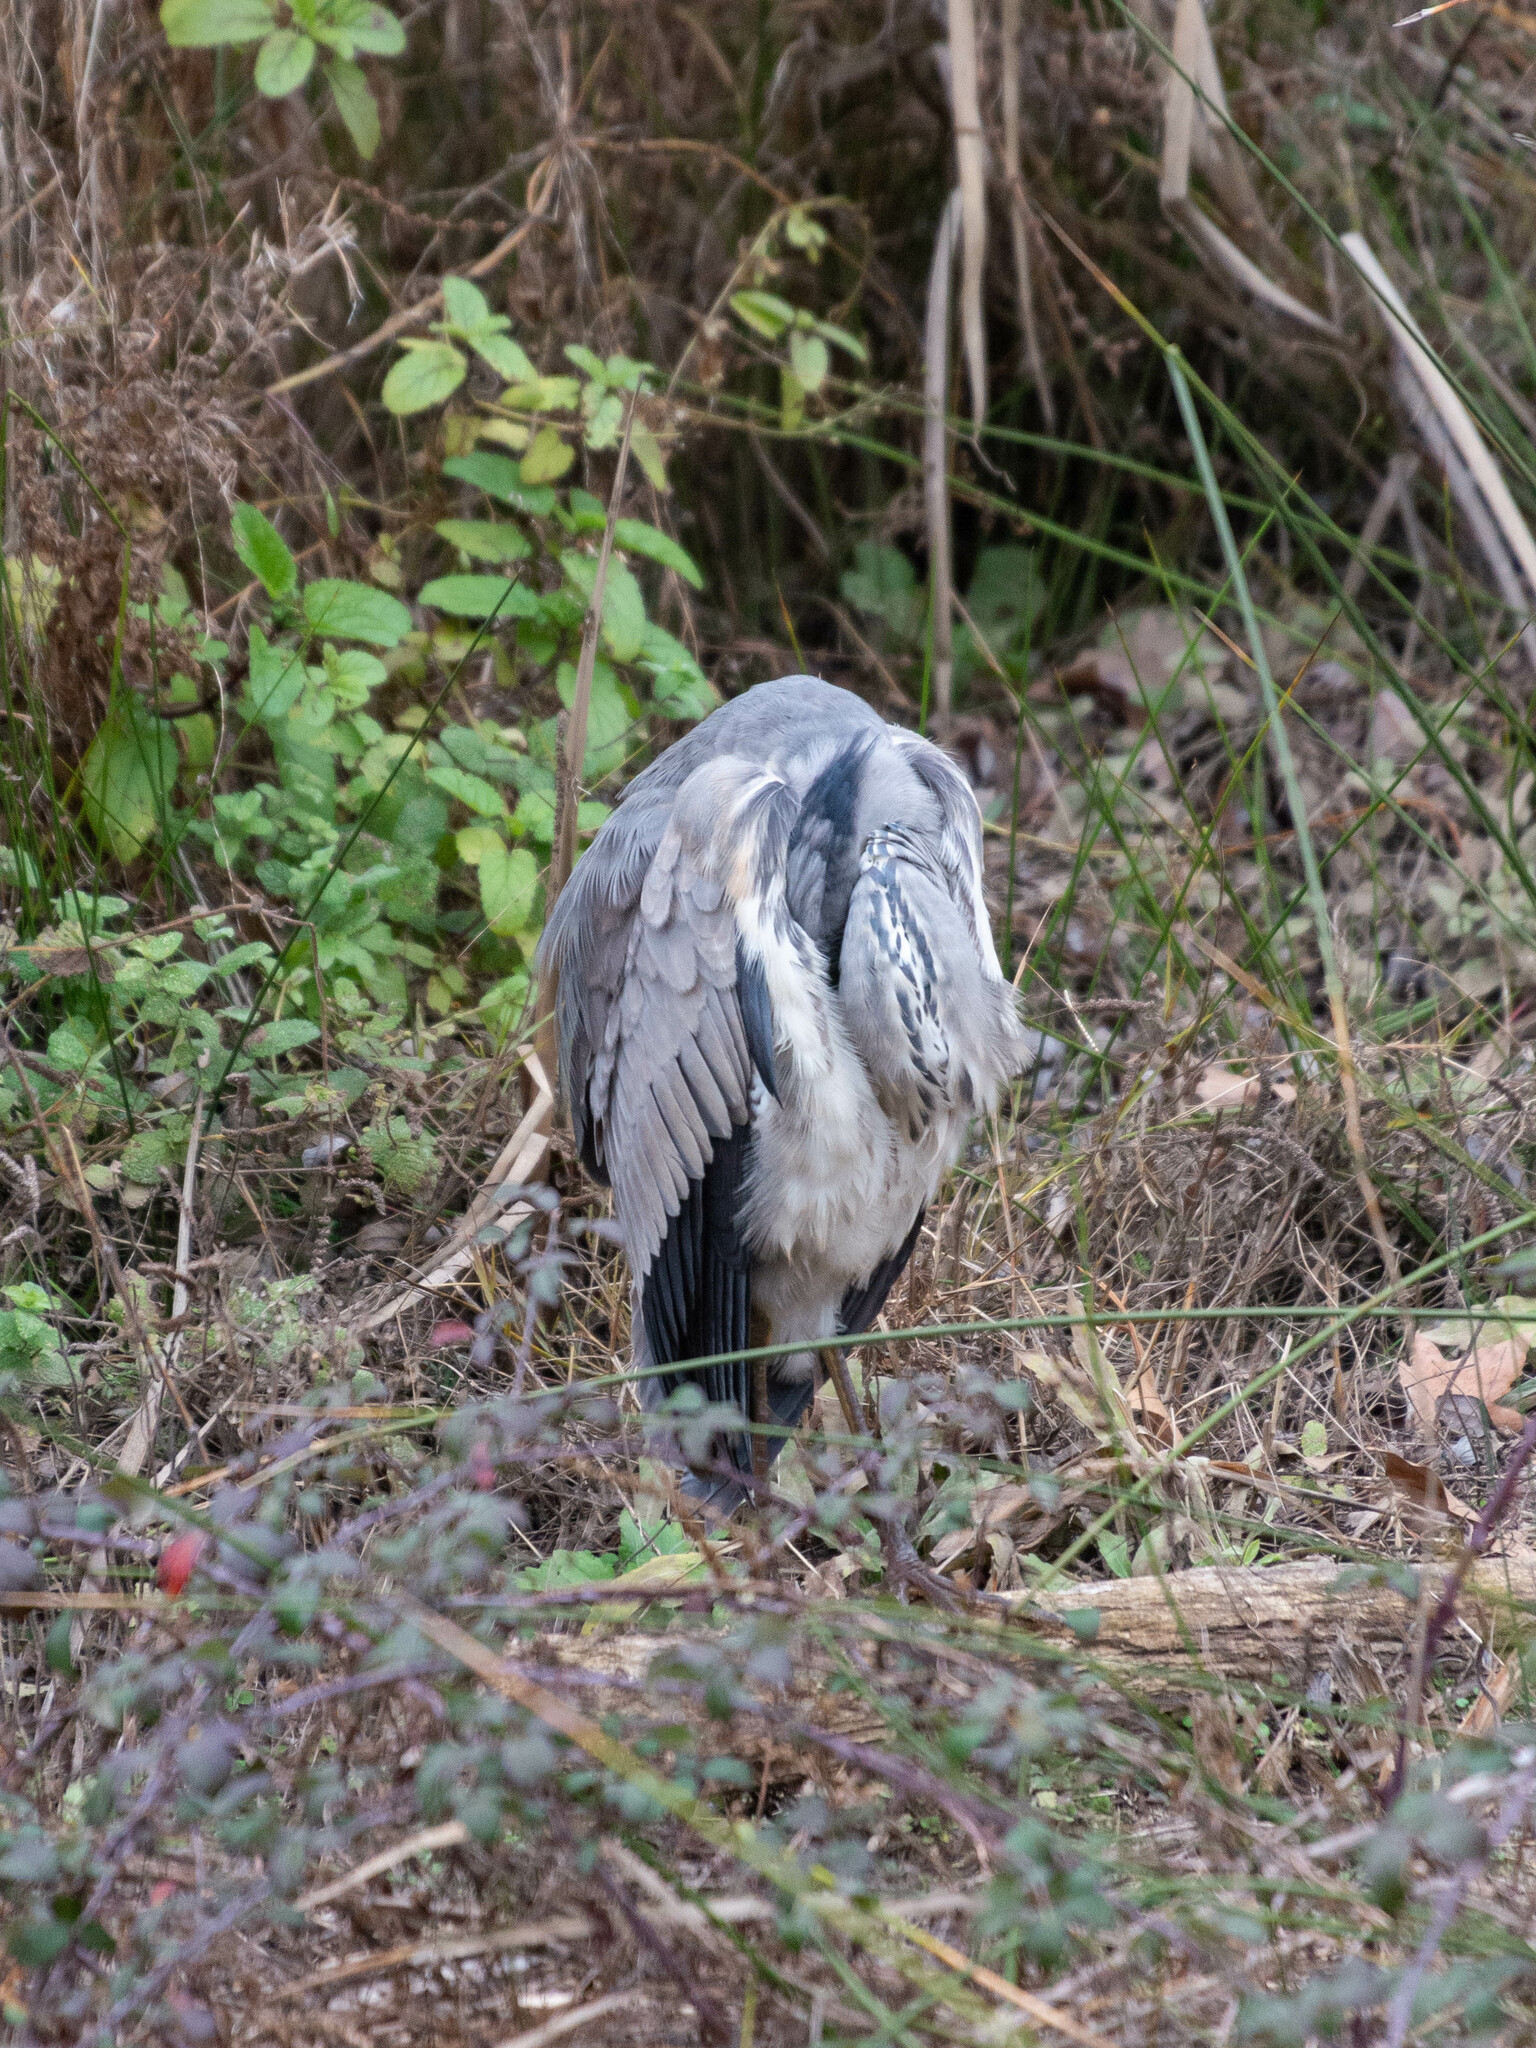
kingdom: Animalia
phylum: Chordata
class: Aves
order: Pelecaniformes
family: Ardeidae
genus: Ardea
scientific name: Ardea cinerea
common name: Grey heron
